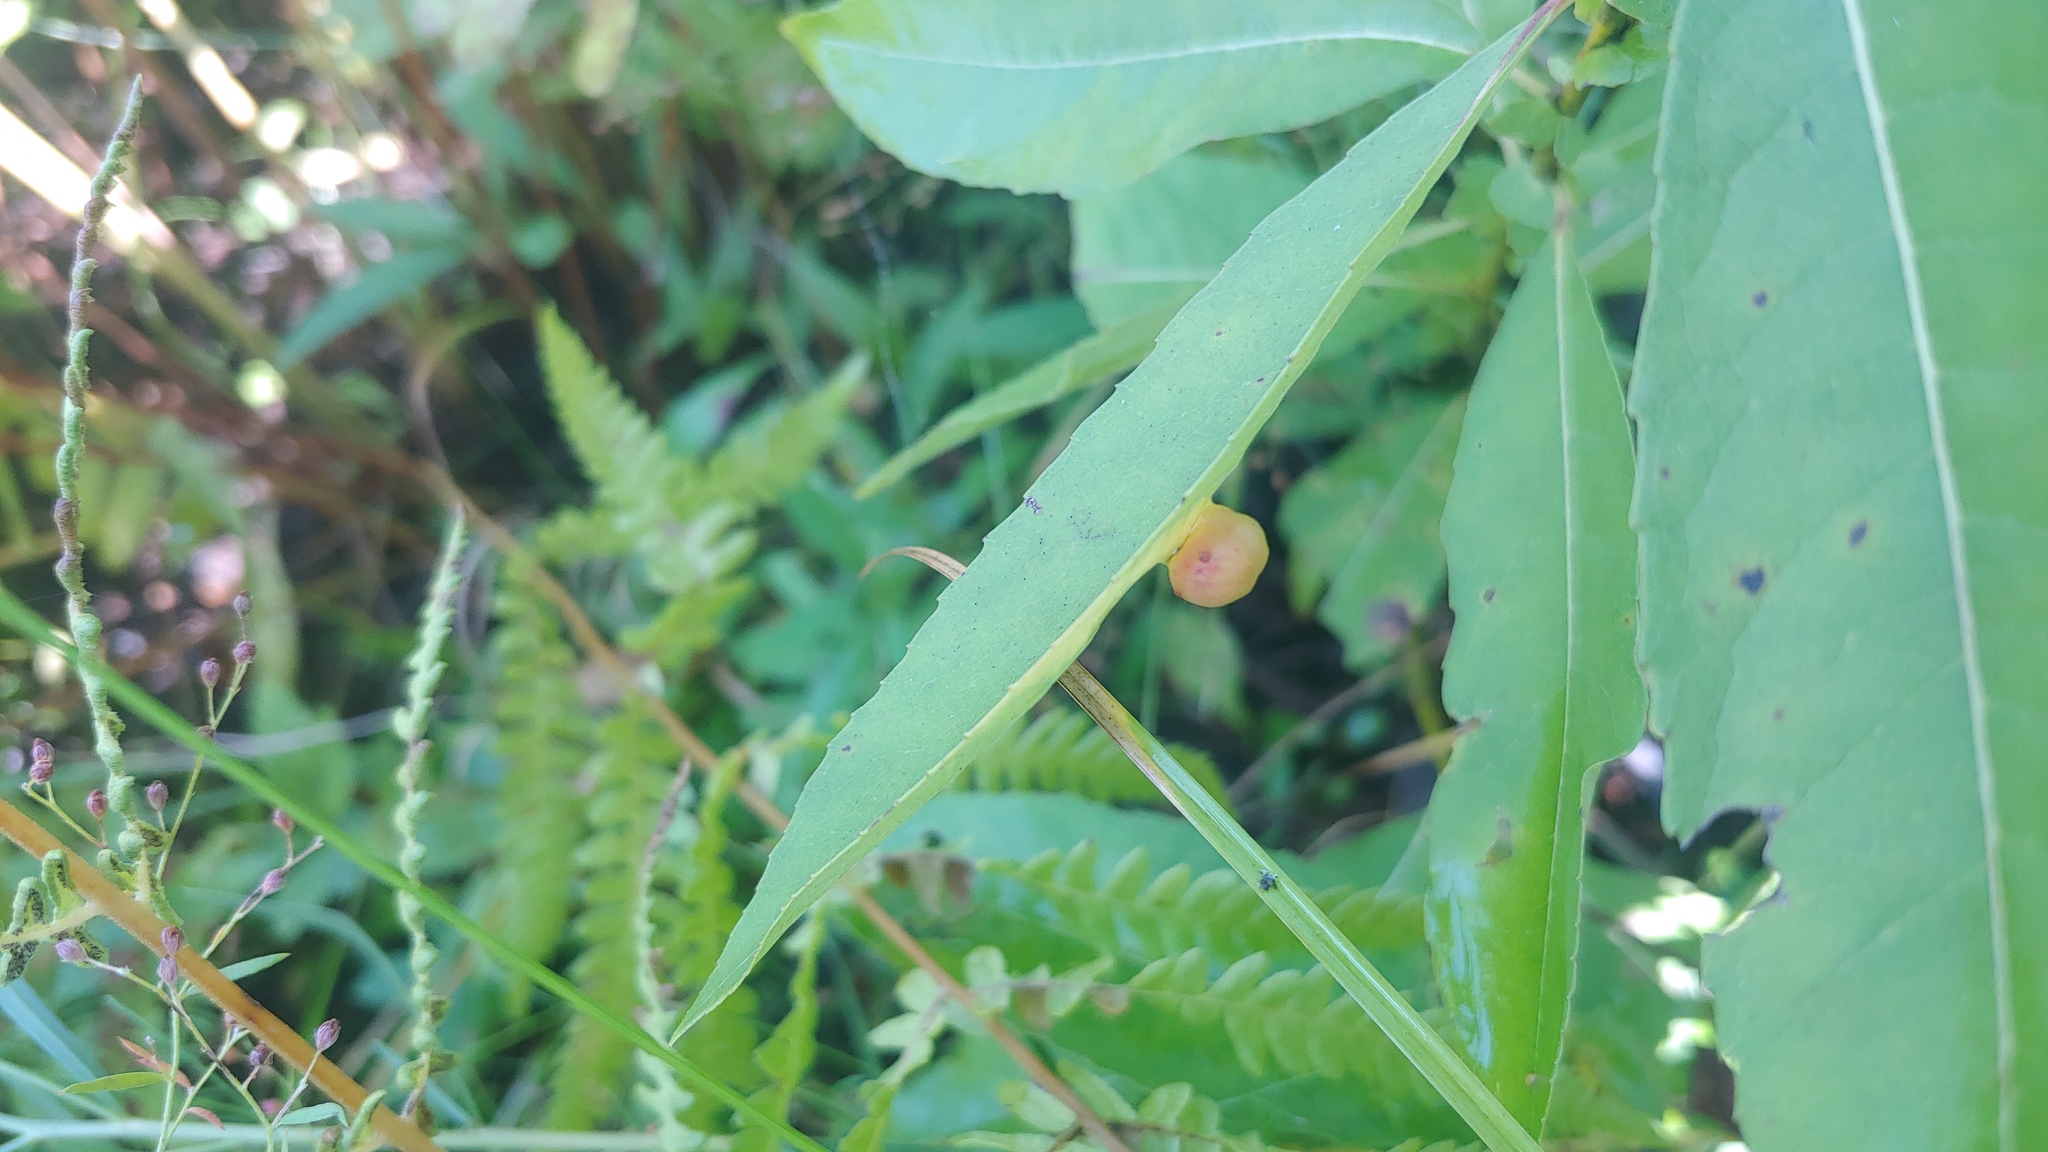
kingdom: Animalia
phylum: Arthropoda
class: Insecta
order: Hymenoptera
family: Tenthredinidae
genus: Euura
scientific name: Euura
